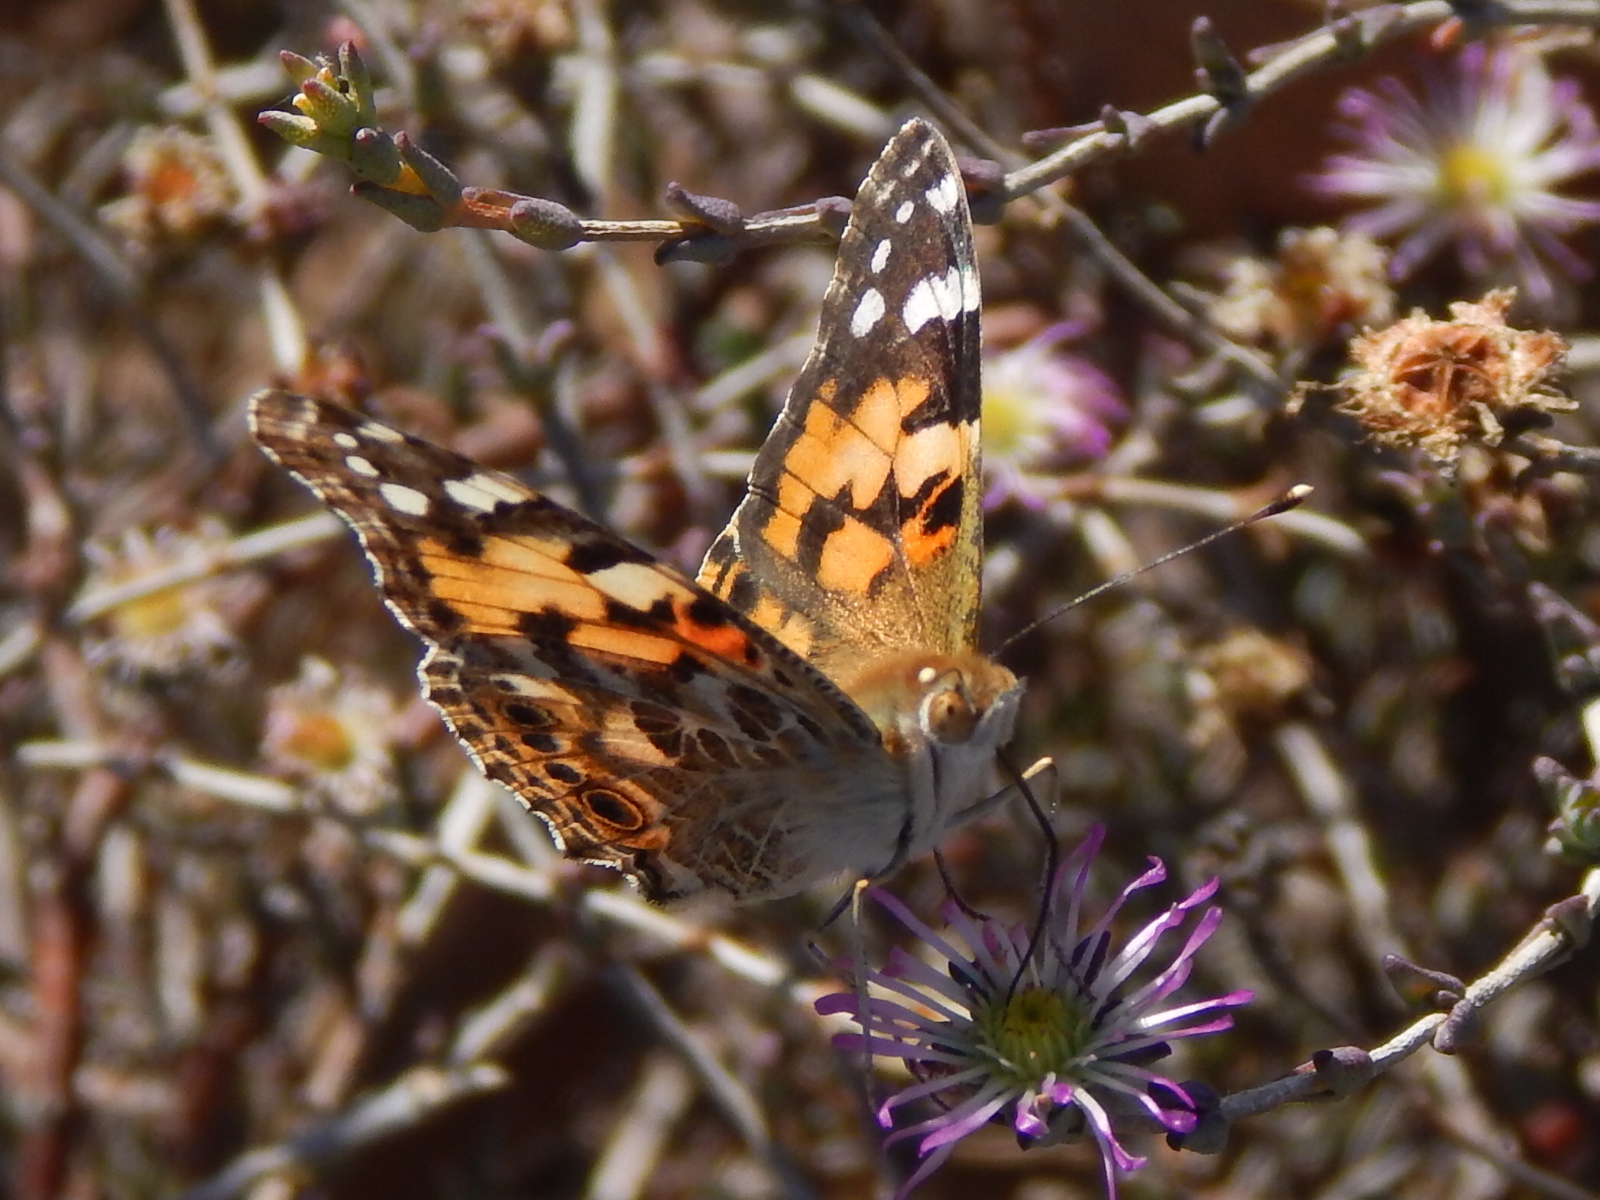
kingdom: Animalia
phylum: Arthropoda
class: Insecta
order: Lepidoptera
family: Nymphalidae
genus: Vanessa
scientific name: Vanessa cardui
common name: Painted lady
